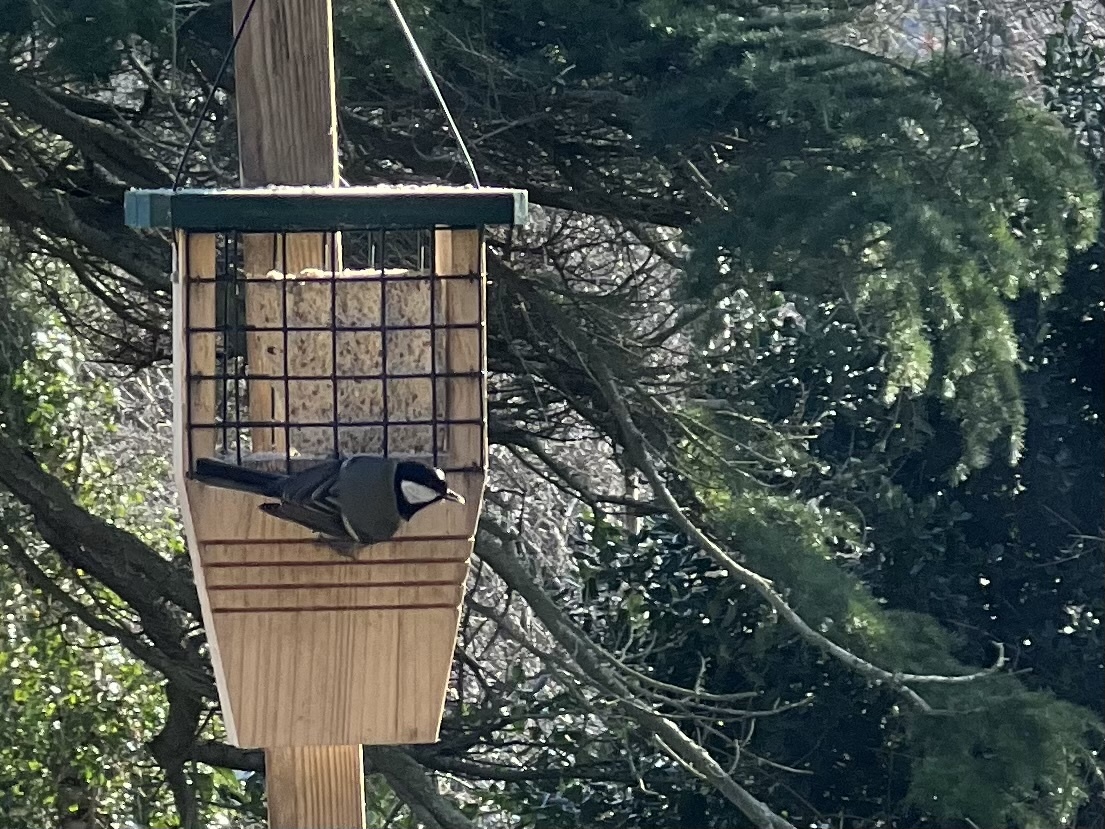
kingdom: Animalia
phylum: Chordata
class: Aves
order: Passeriformes
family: Paridae
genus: Parus
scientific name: Parus major
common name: Great tit
